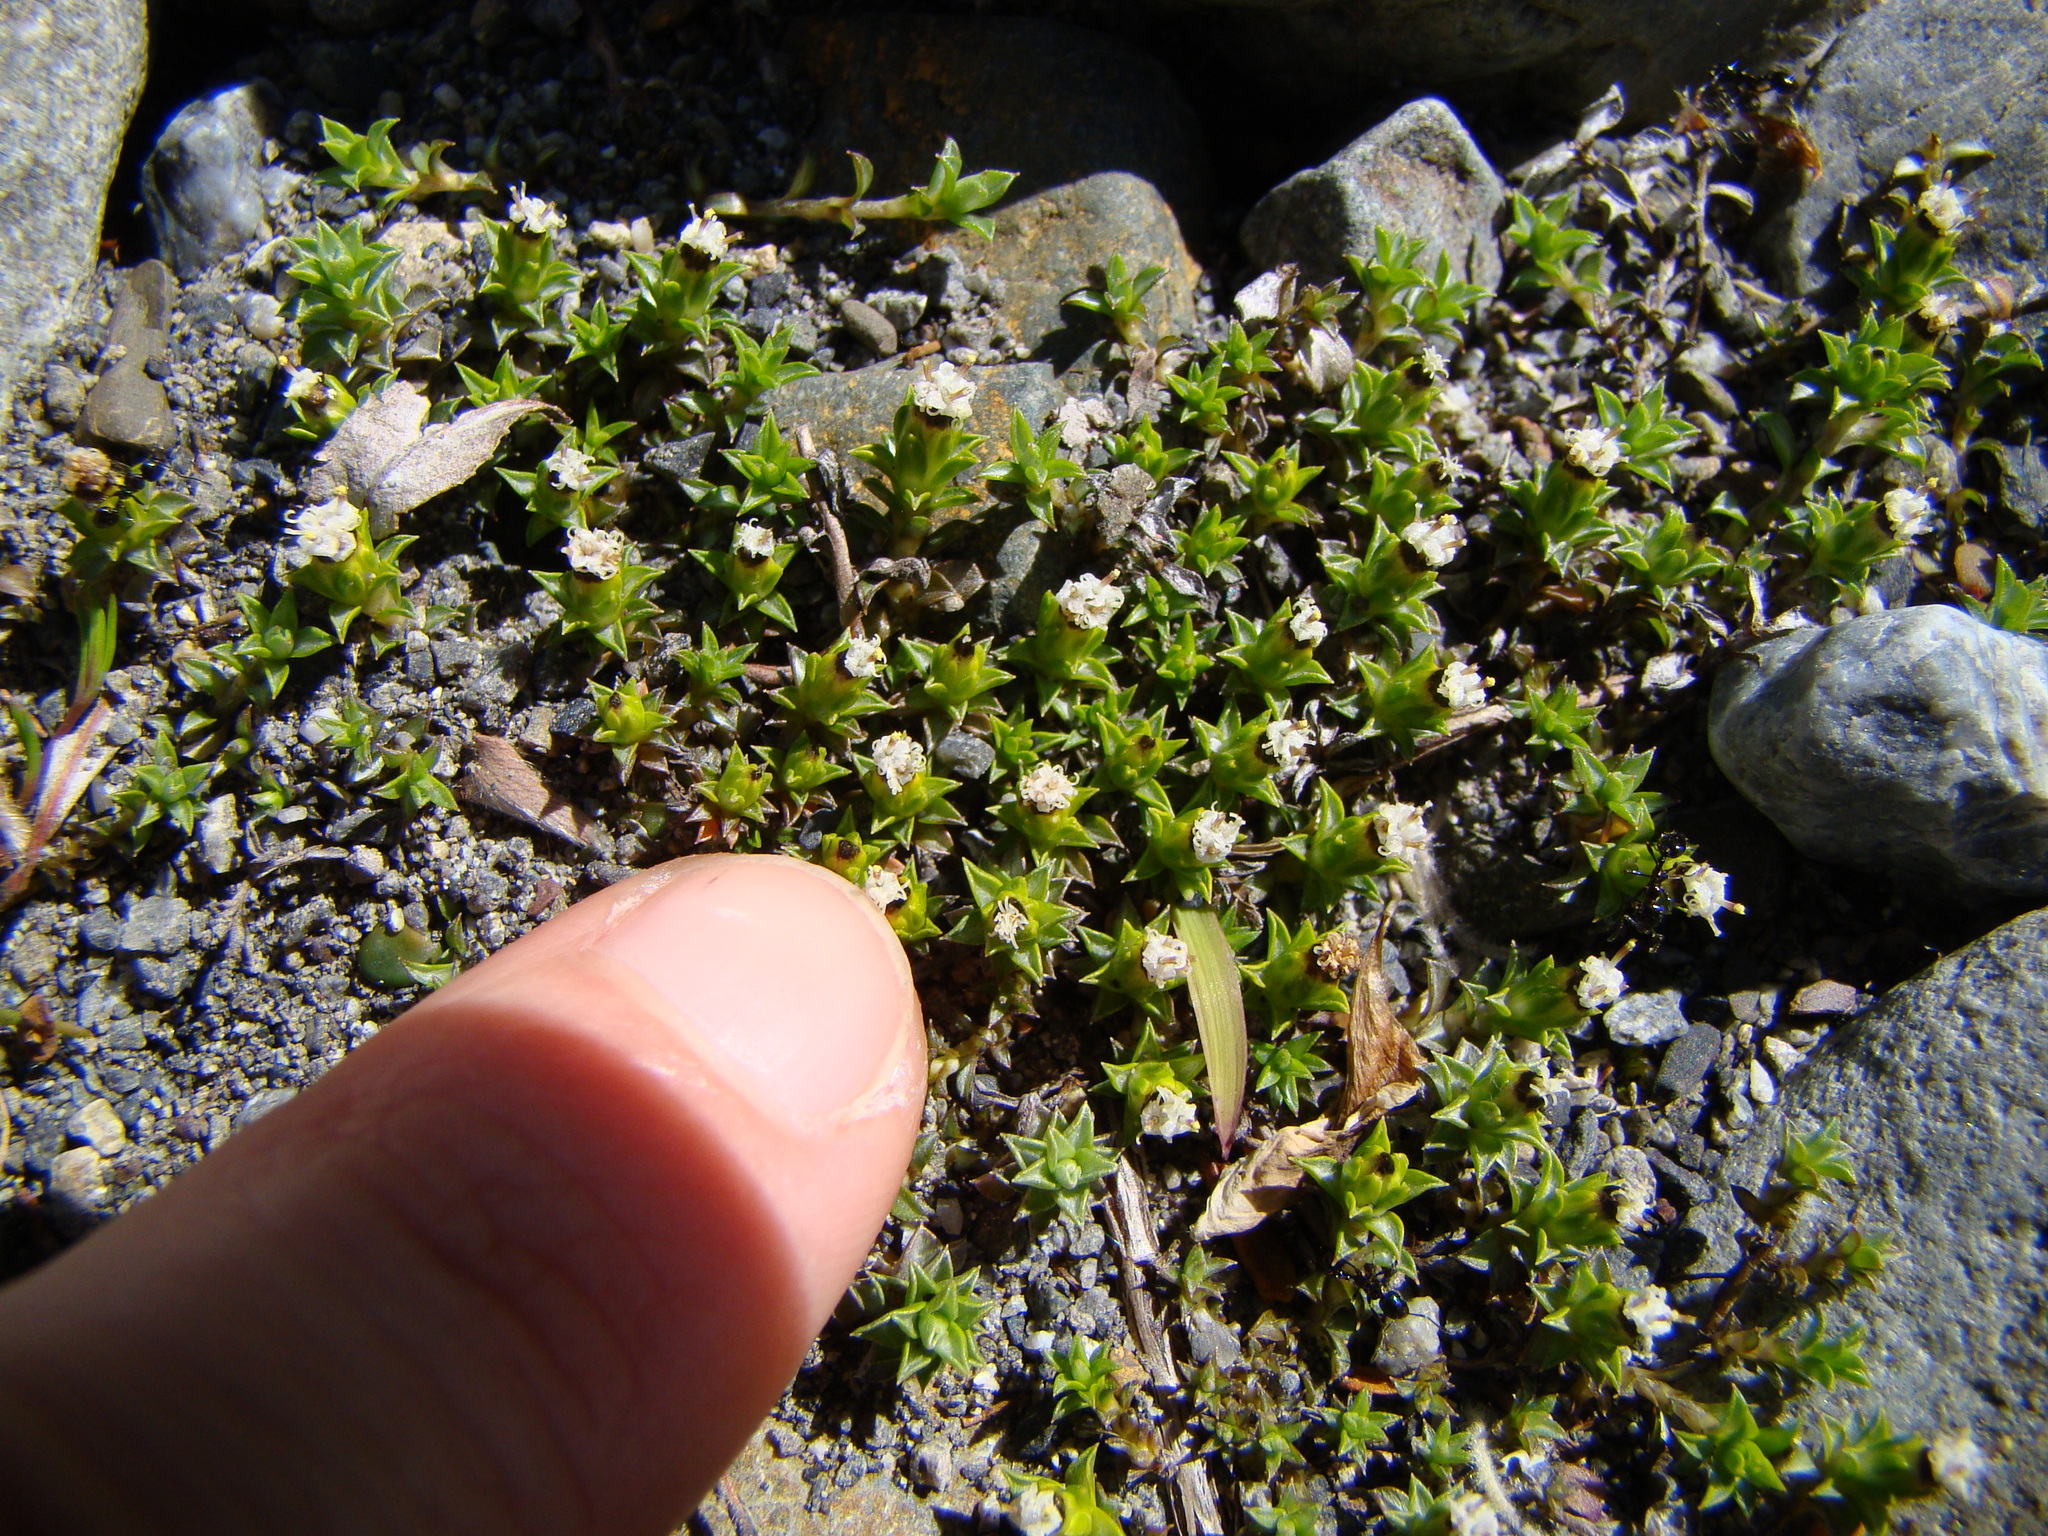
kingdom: Plantae
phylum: Tracheophyta
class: Magnoliopsida
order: Asterales
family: Asteraceae
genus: Raoulia
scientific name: Raoulia glabra
